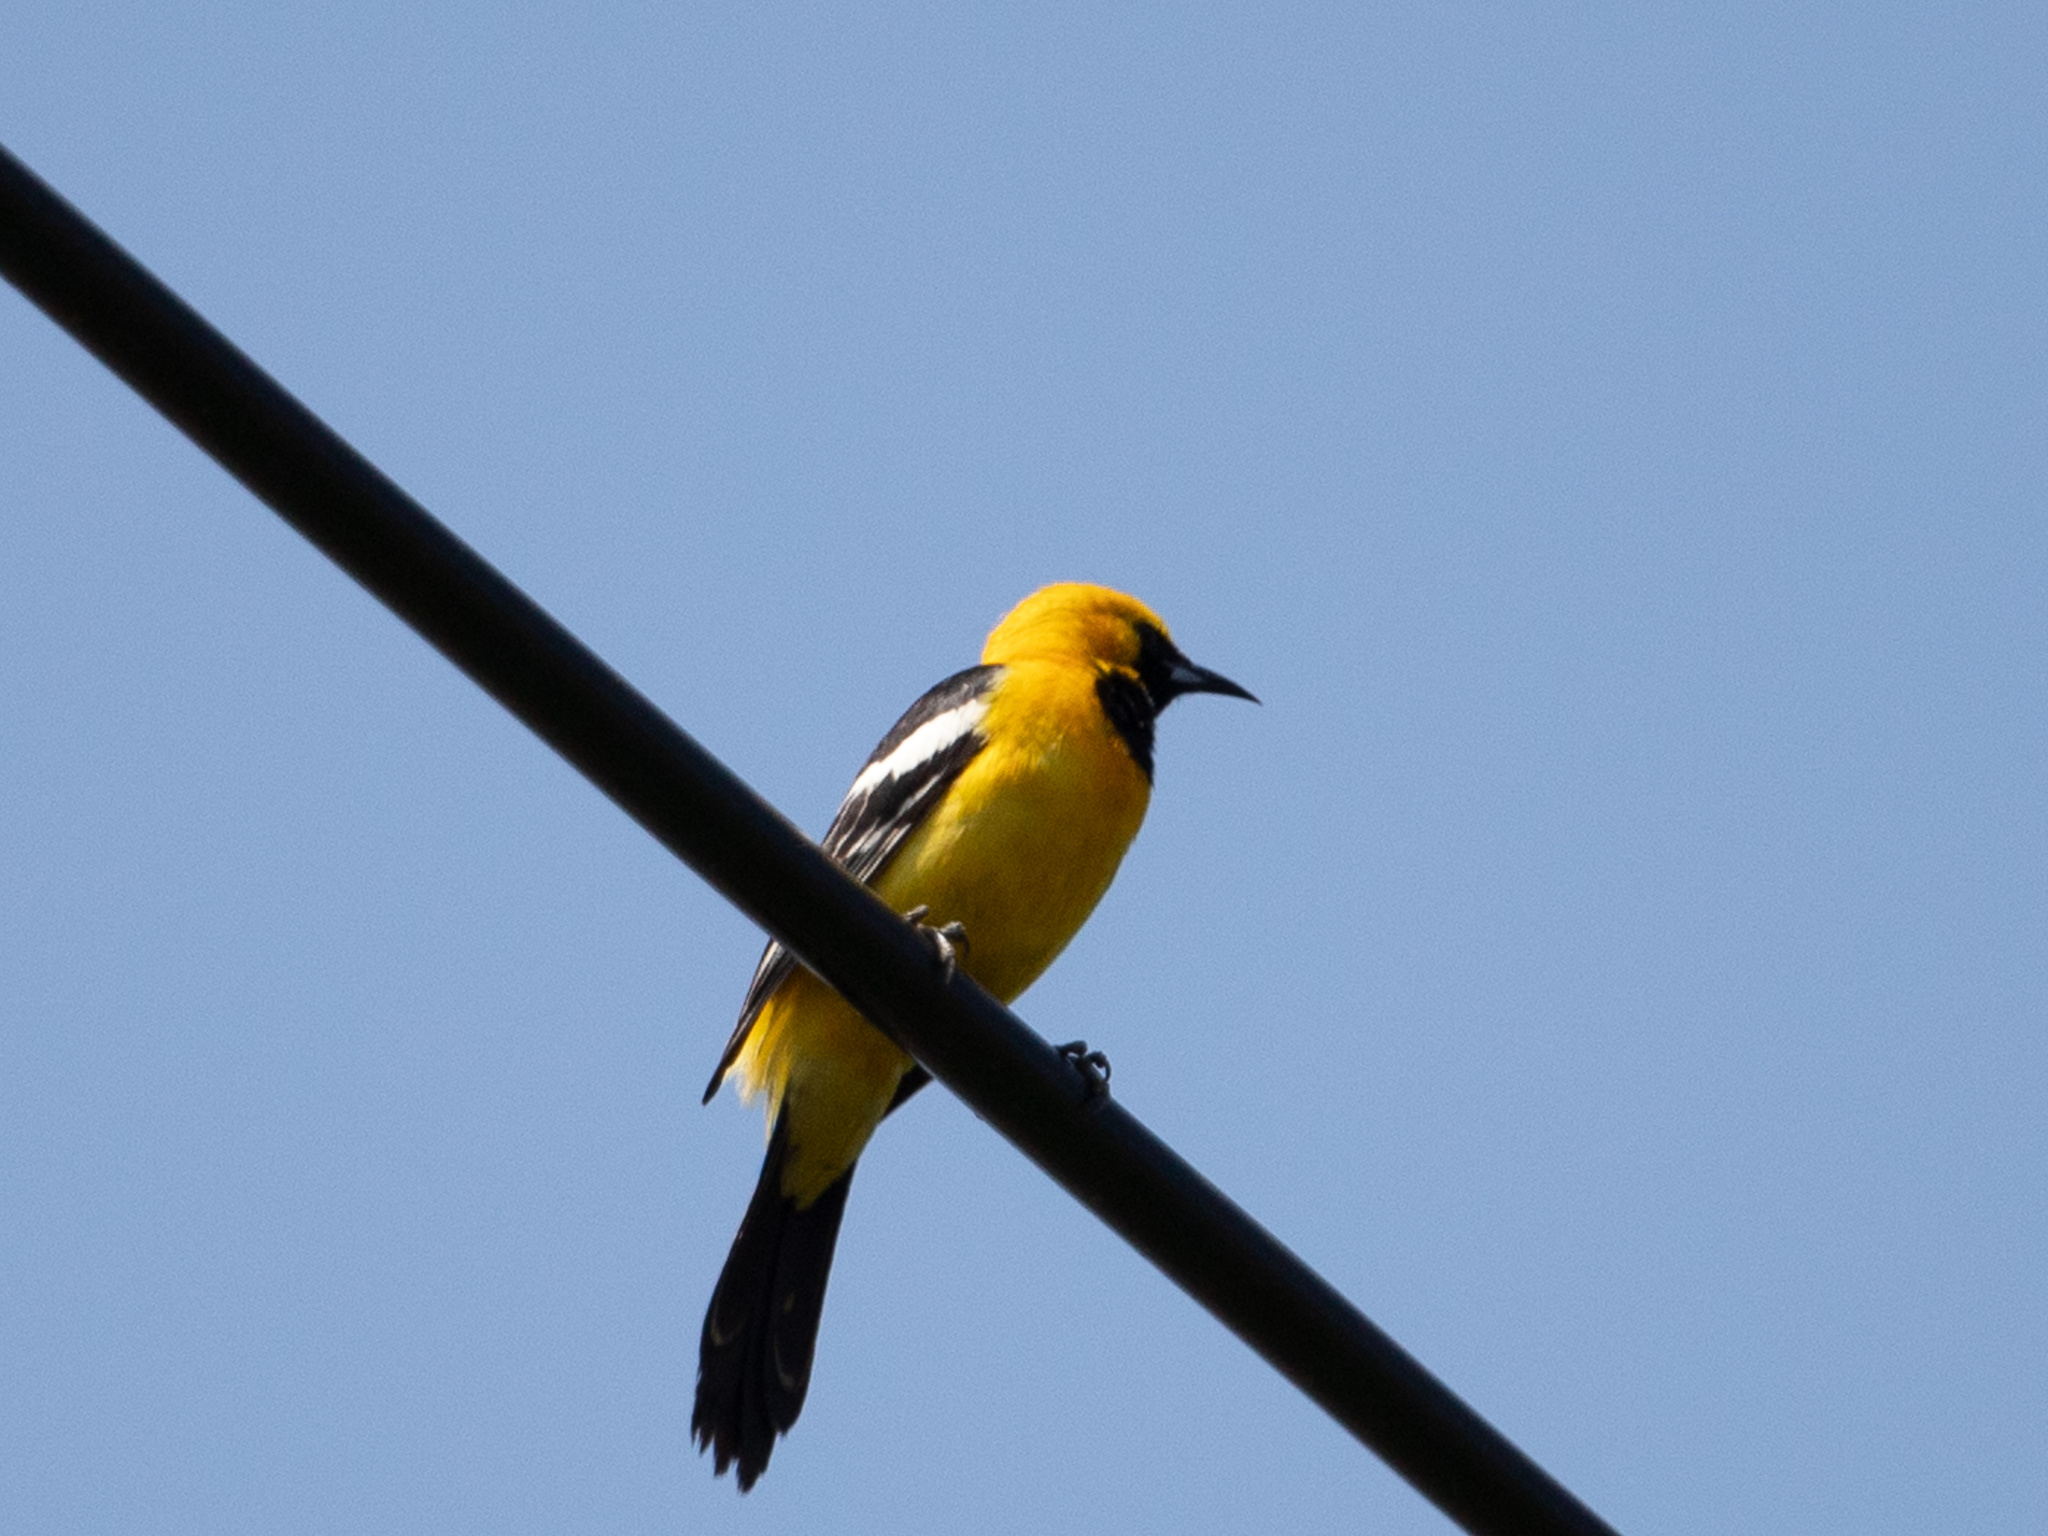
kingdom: Animalia
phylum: Chordata
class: Aves
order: Passeriformes
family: Icteridae
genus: Icterus
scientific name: Icterus cucullatus
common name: Hooded oriole
